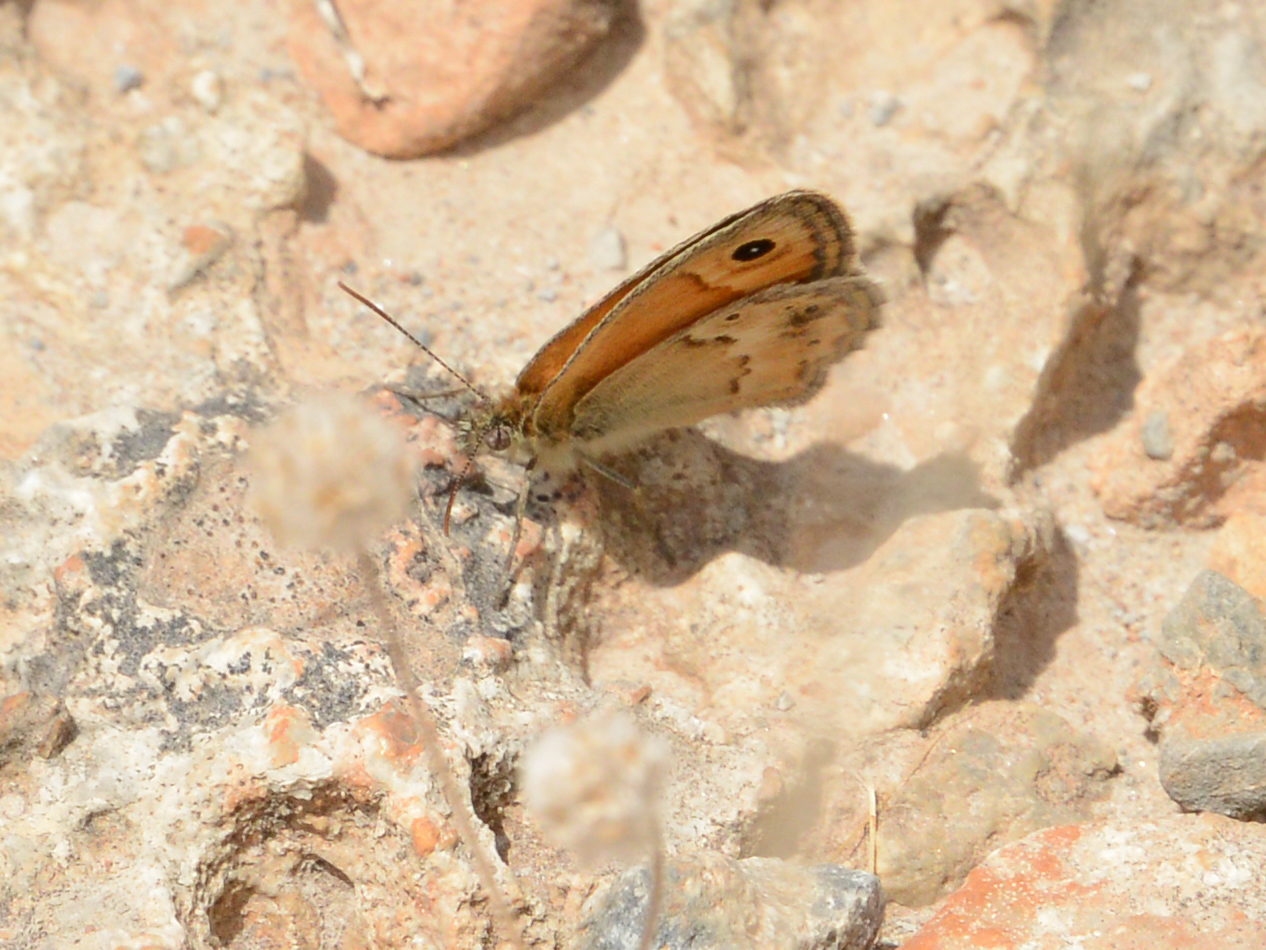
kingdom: Animalia
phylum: Arthropoda
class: Insecta
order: Lepidoptera
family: Nymphalidae
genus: Coenonympha
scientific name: Coenonympha thyrsis
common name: Cretan small heath
